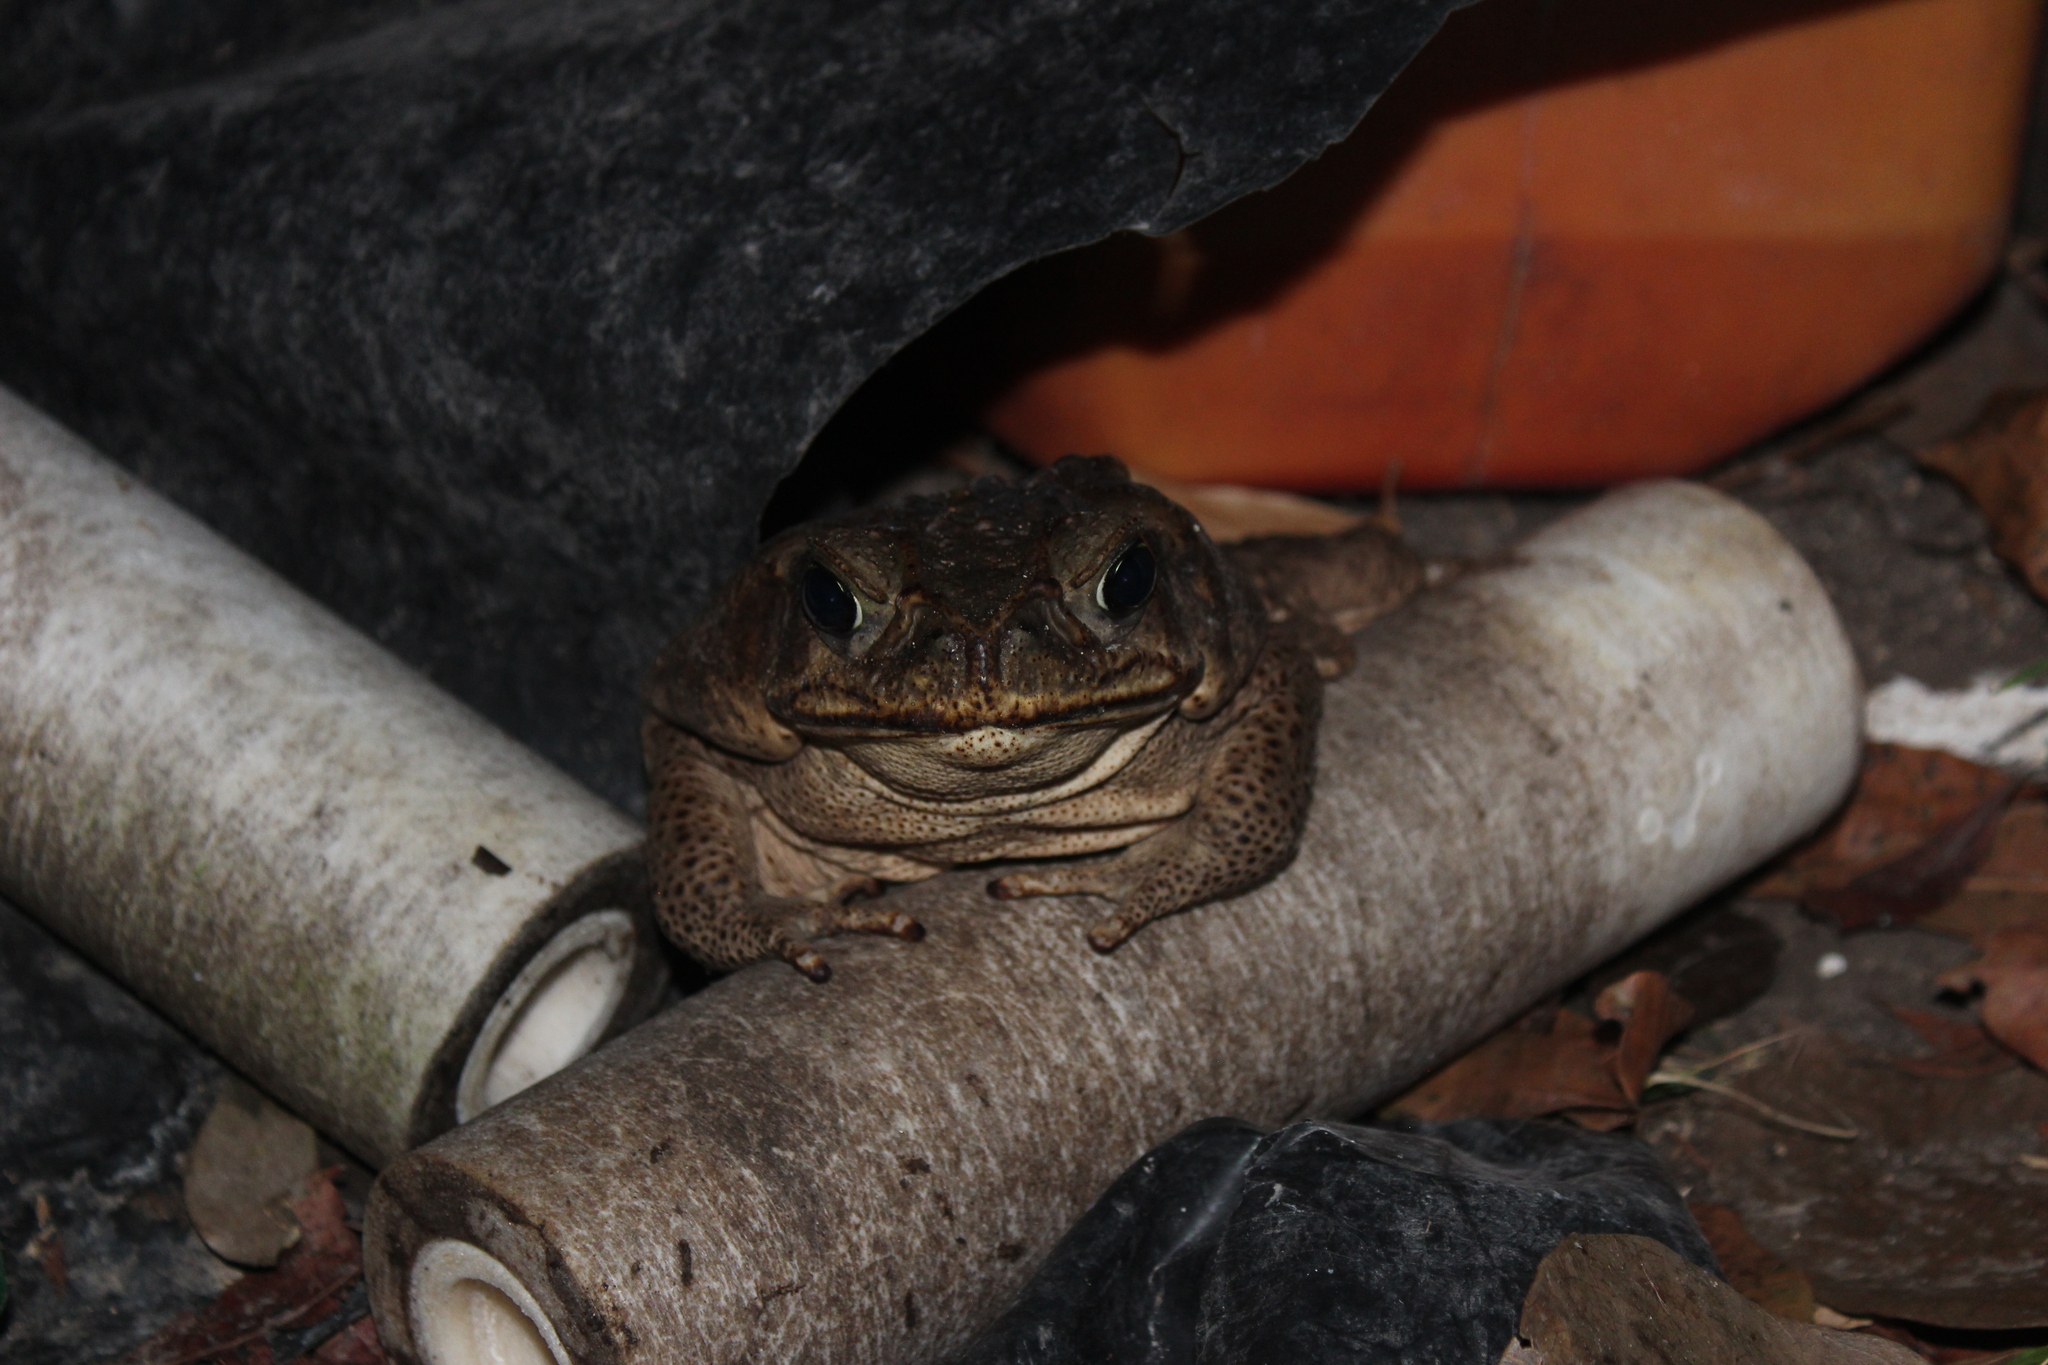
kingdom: Animalia
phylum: Chordata
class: Amphibia
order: Anura
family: Bufonidae
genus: Rhinella
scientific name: Rhinella horribilis
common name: Mesoamerican cane toad
